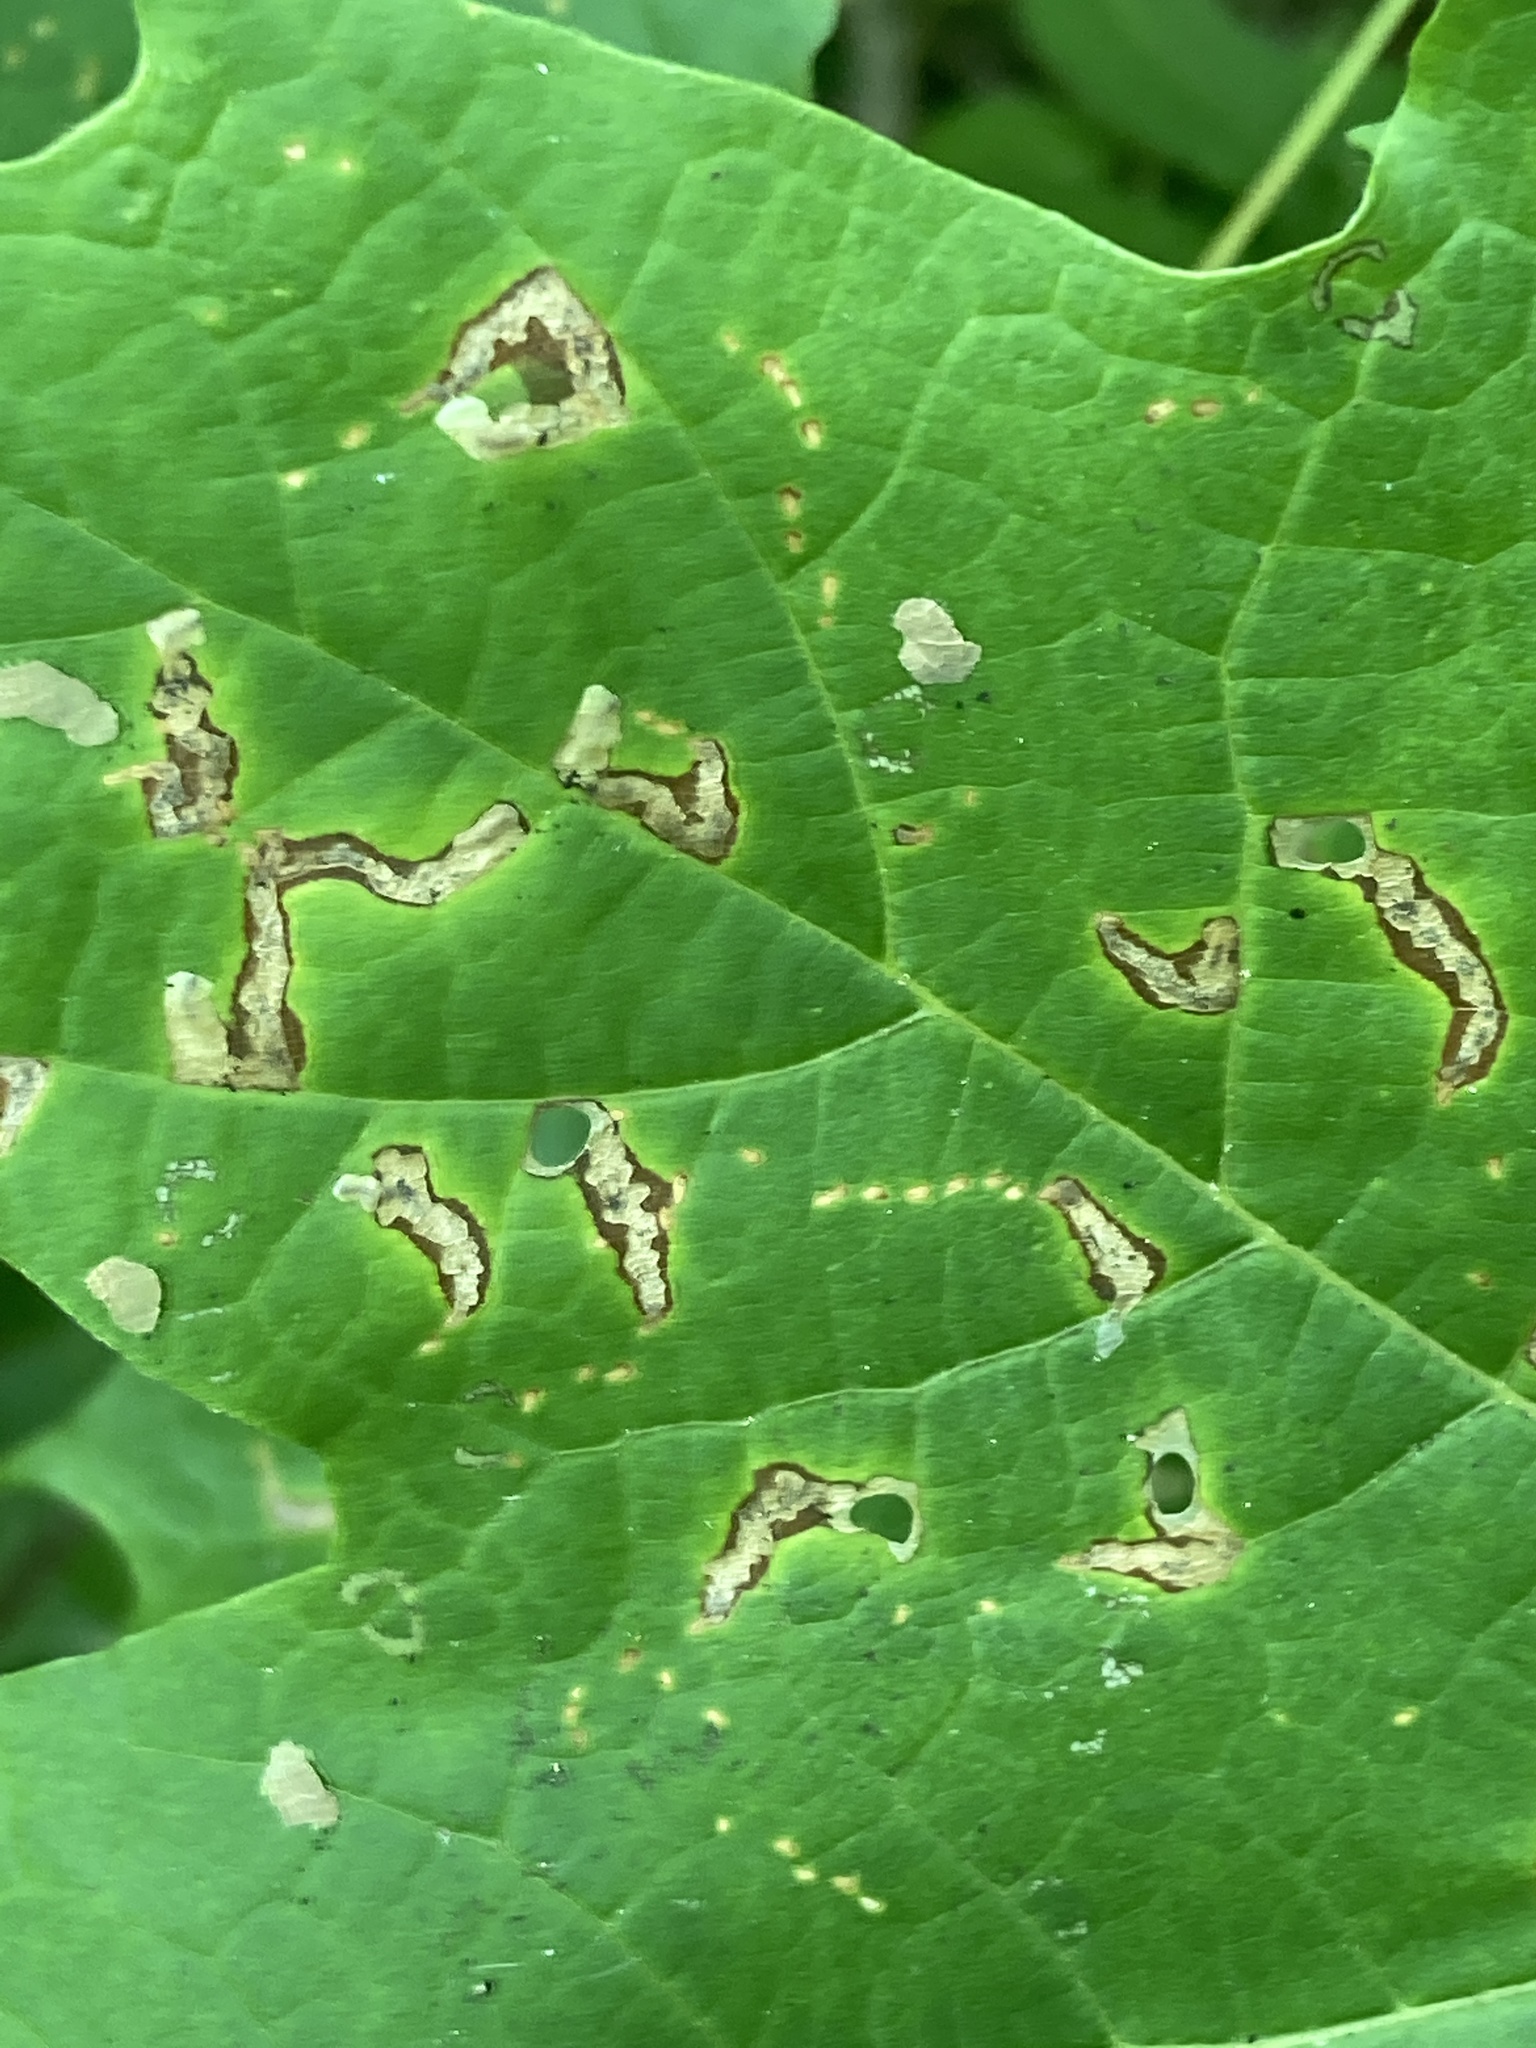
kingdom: Animalia
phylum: Arthropoda
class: Insecta
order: Lepidoptera
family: Incurvariidae
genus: Paraclemensia
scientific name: Paraclemensia acerifoliella
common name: Maple leafcutter
